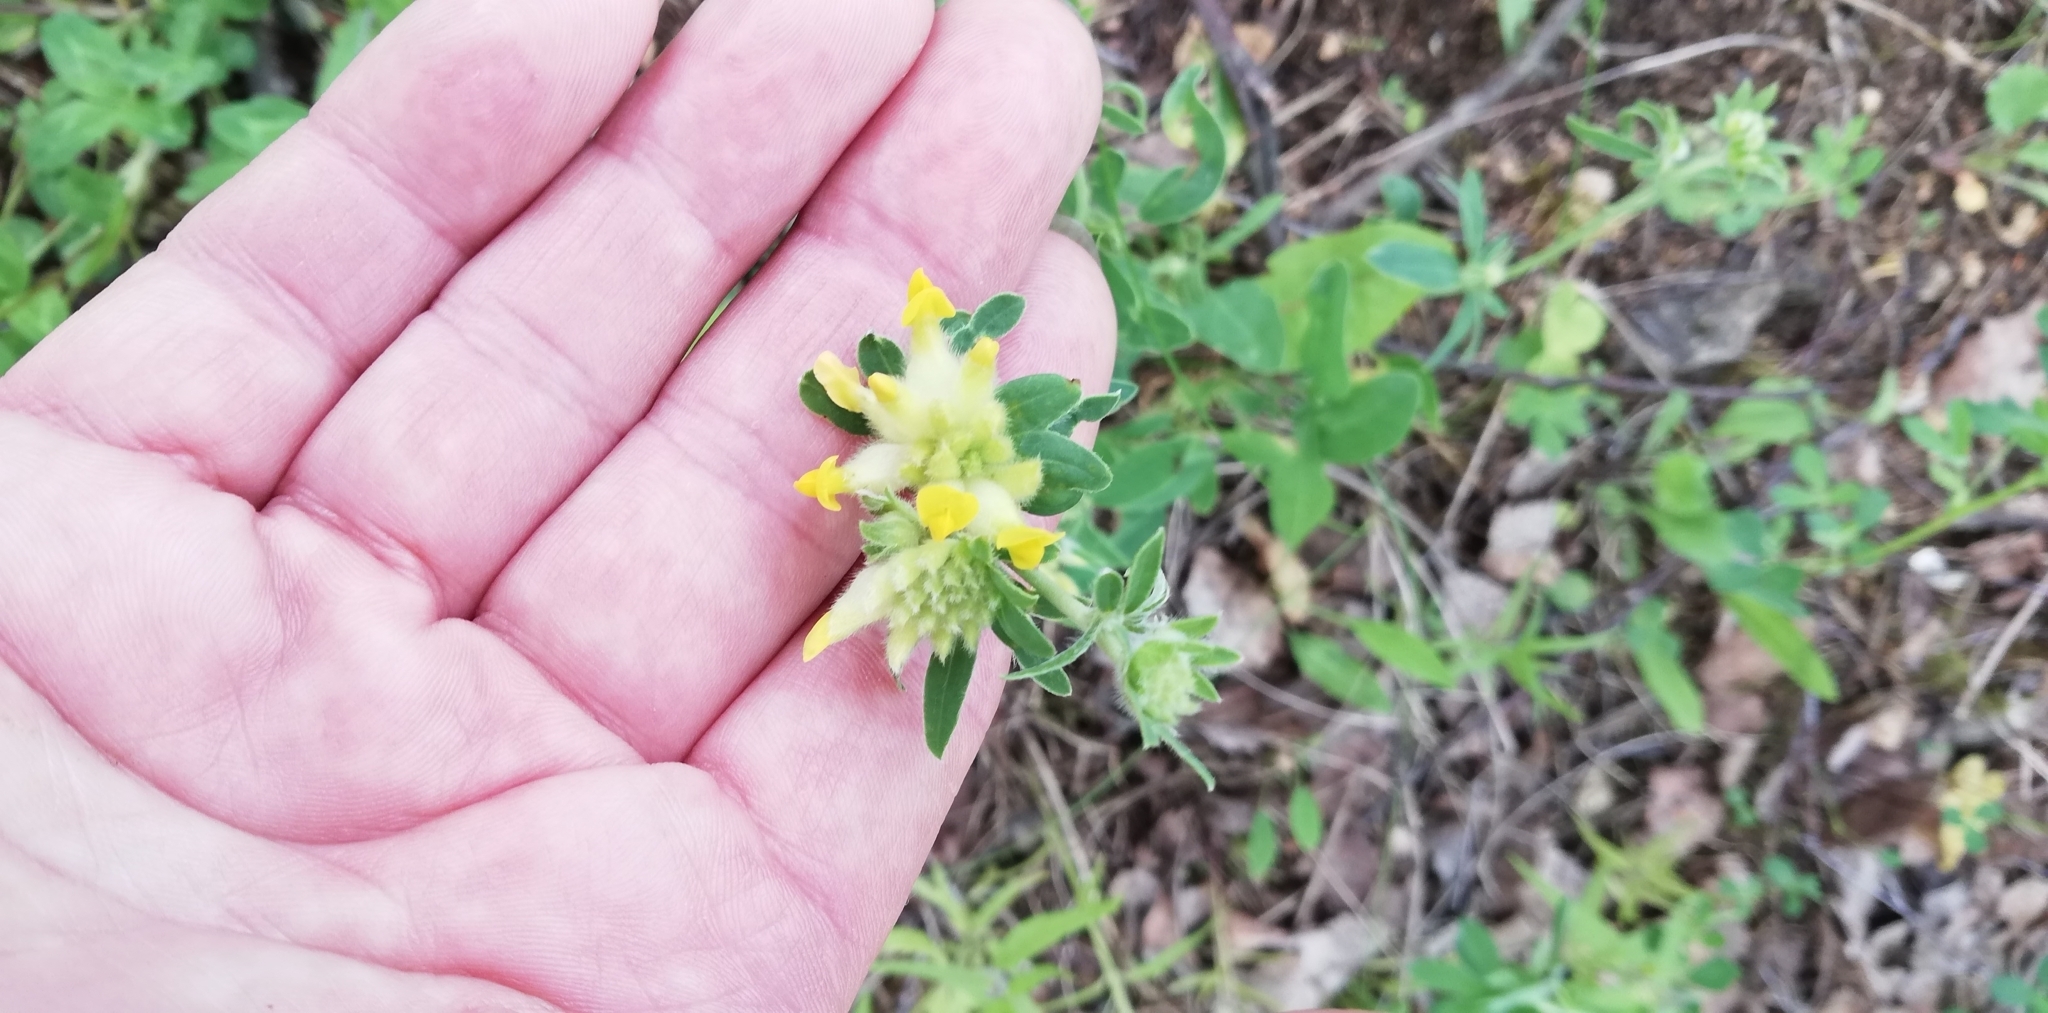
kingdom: Plantae
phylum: Tracheophyta
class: Magnoliopsida
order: Fabales
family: Fabaceae
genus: Anthyllis
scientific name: Anthyllis vulneraria
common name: Kidney vetch
